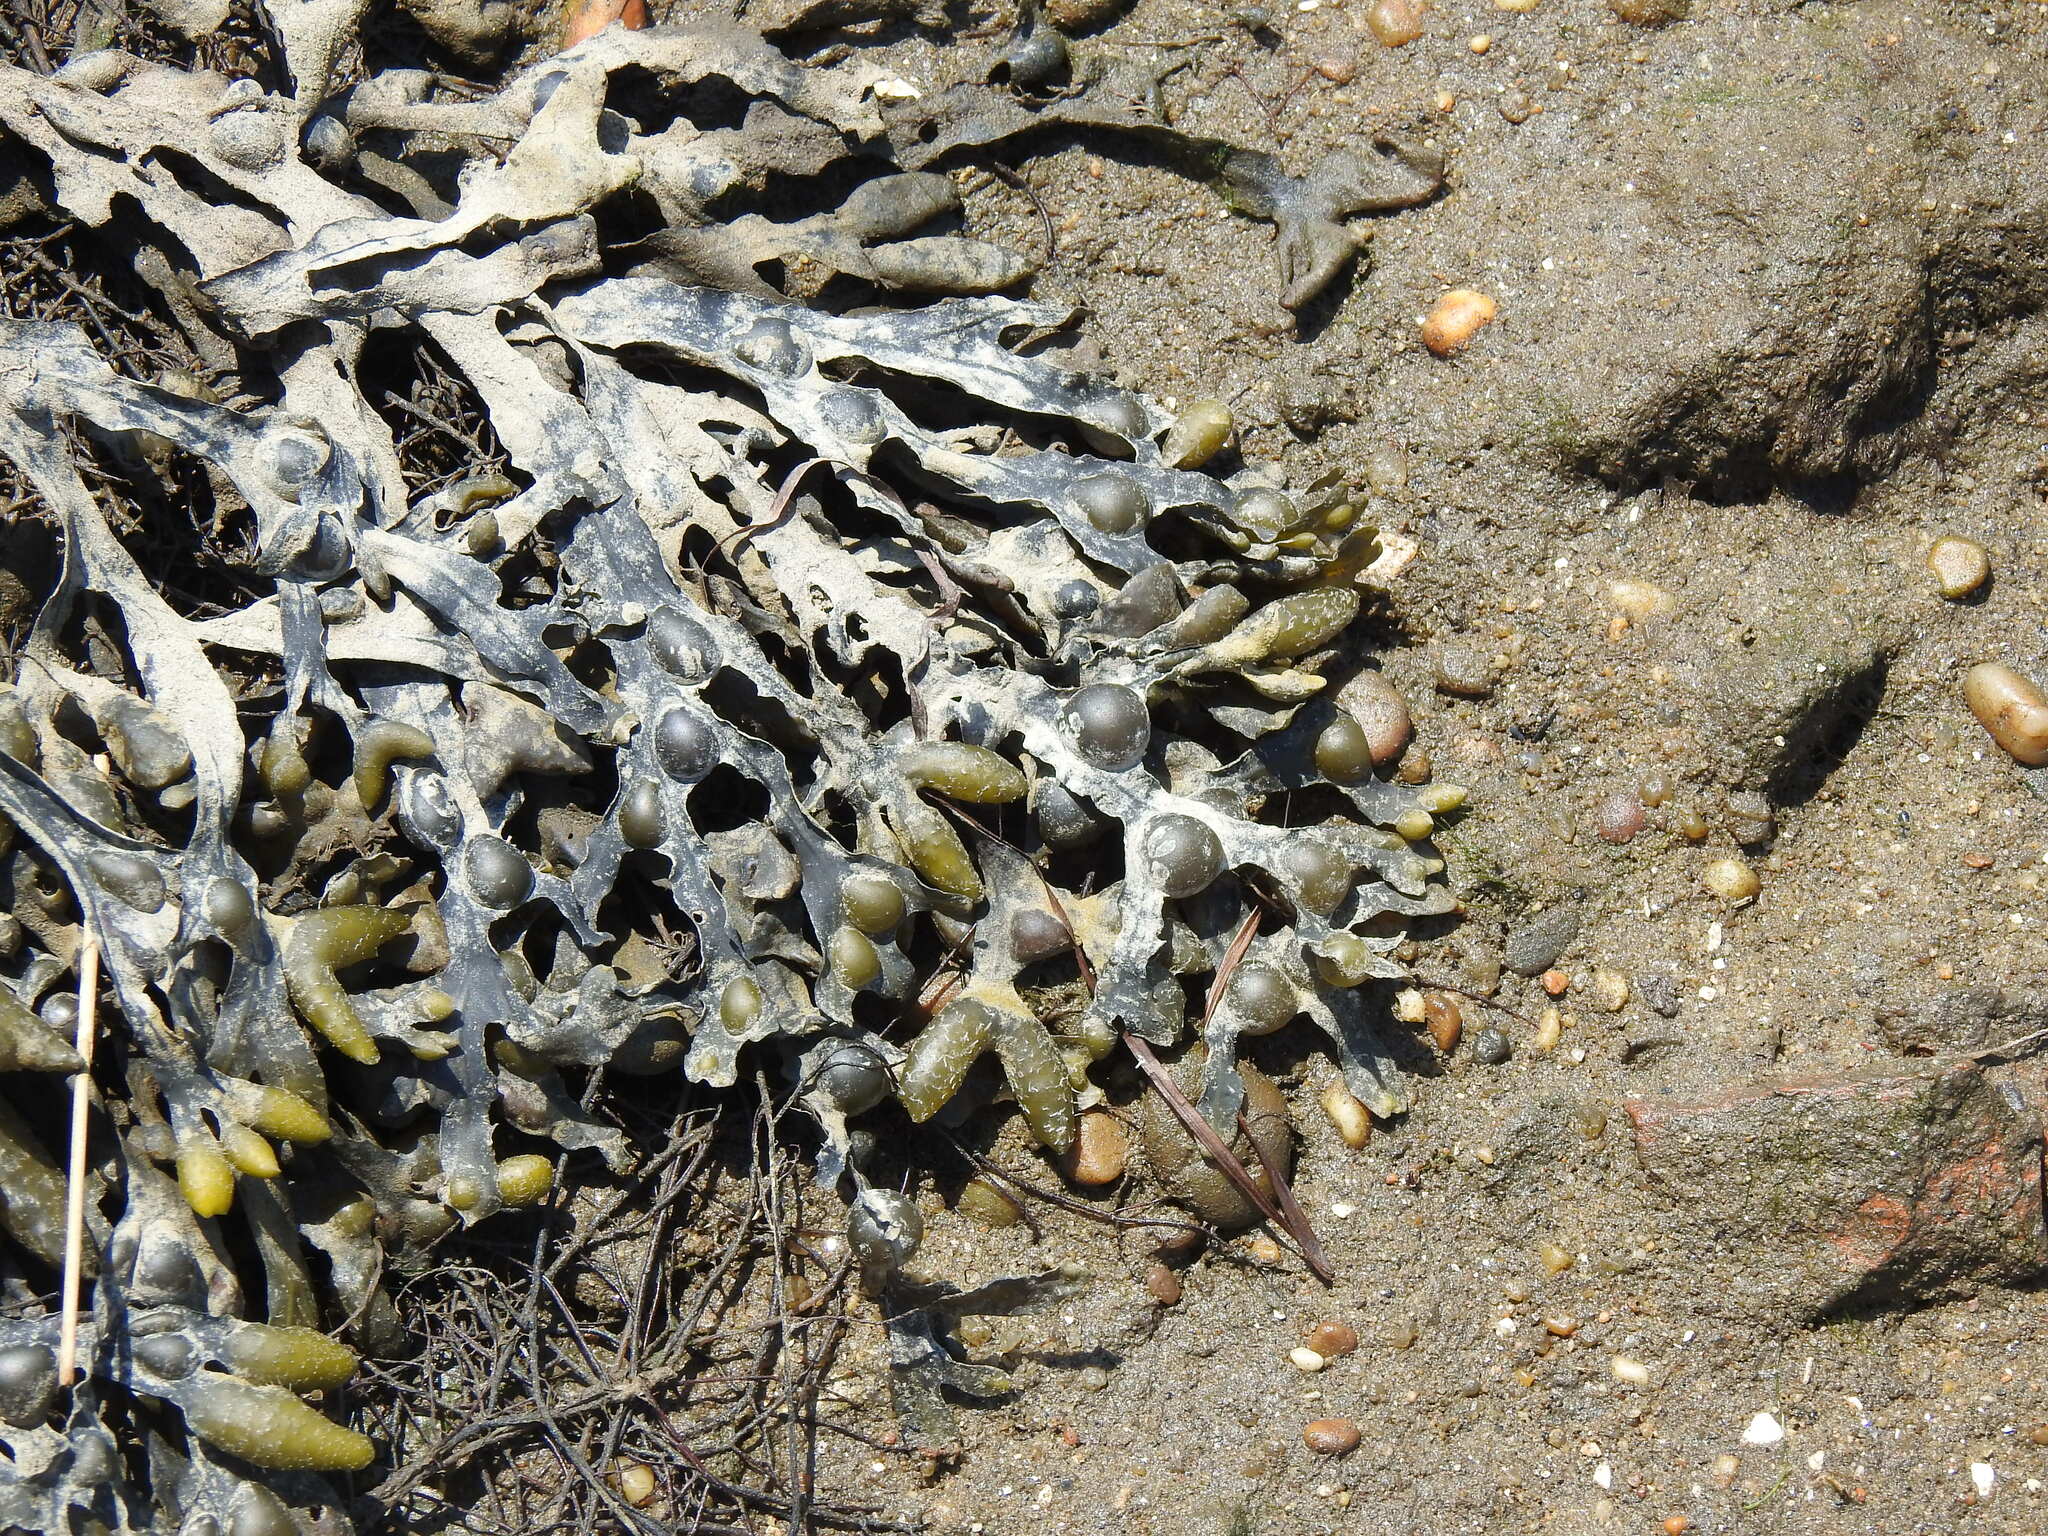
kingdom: Chromista
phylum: Ochrophyta
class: Phaeophyceae
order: Fucales
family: Fucaceae
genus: Fucus
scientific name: Fucus vesiculosus
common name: Bladder wrack
